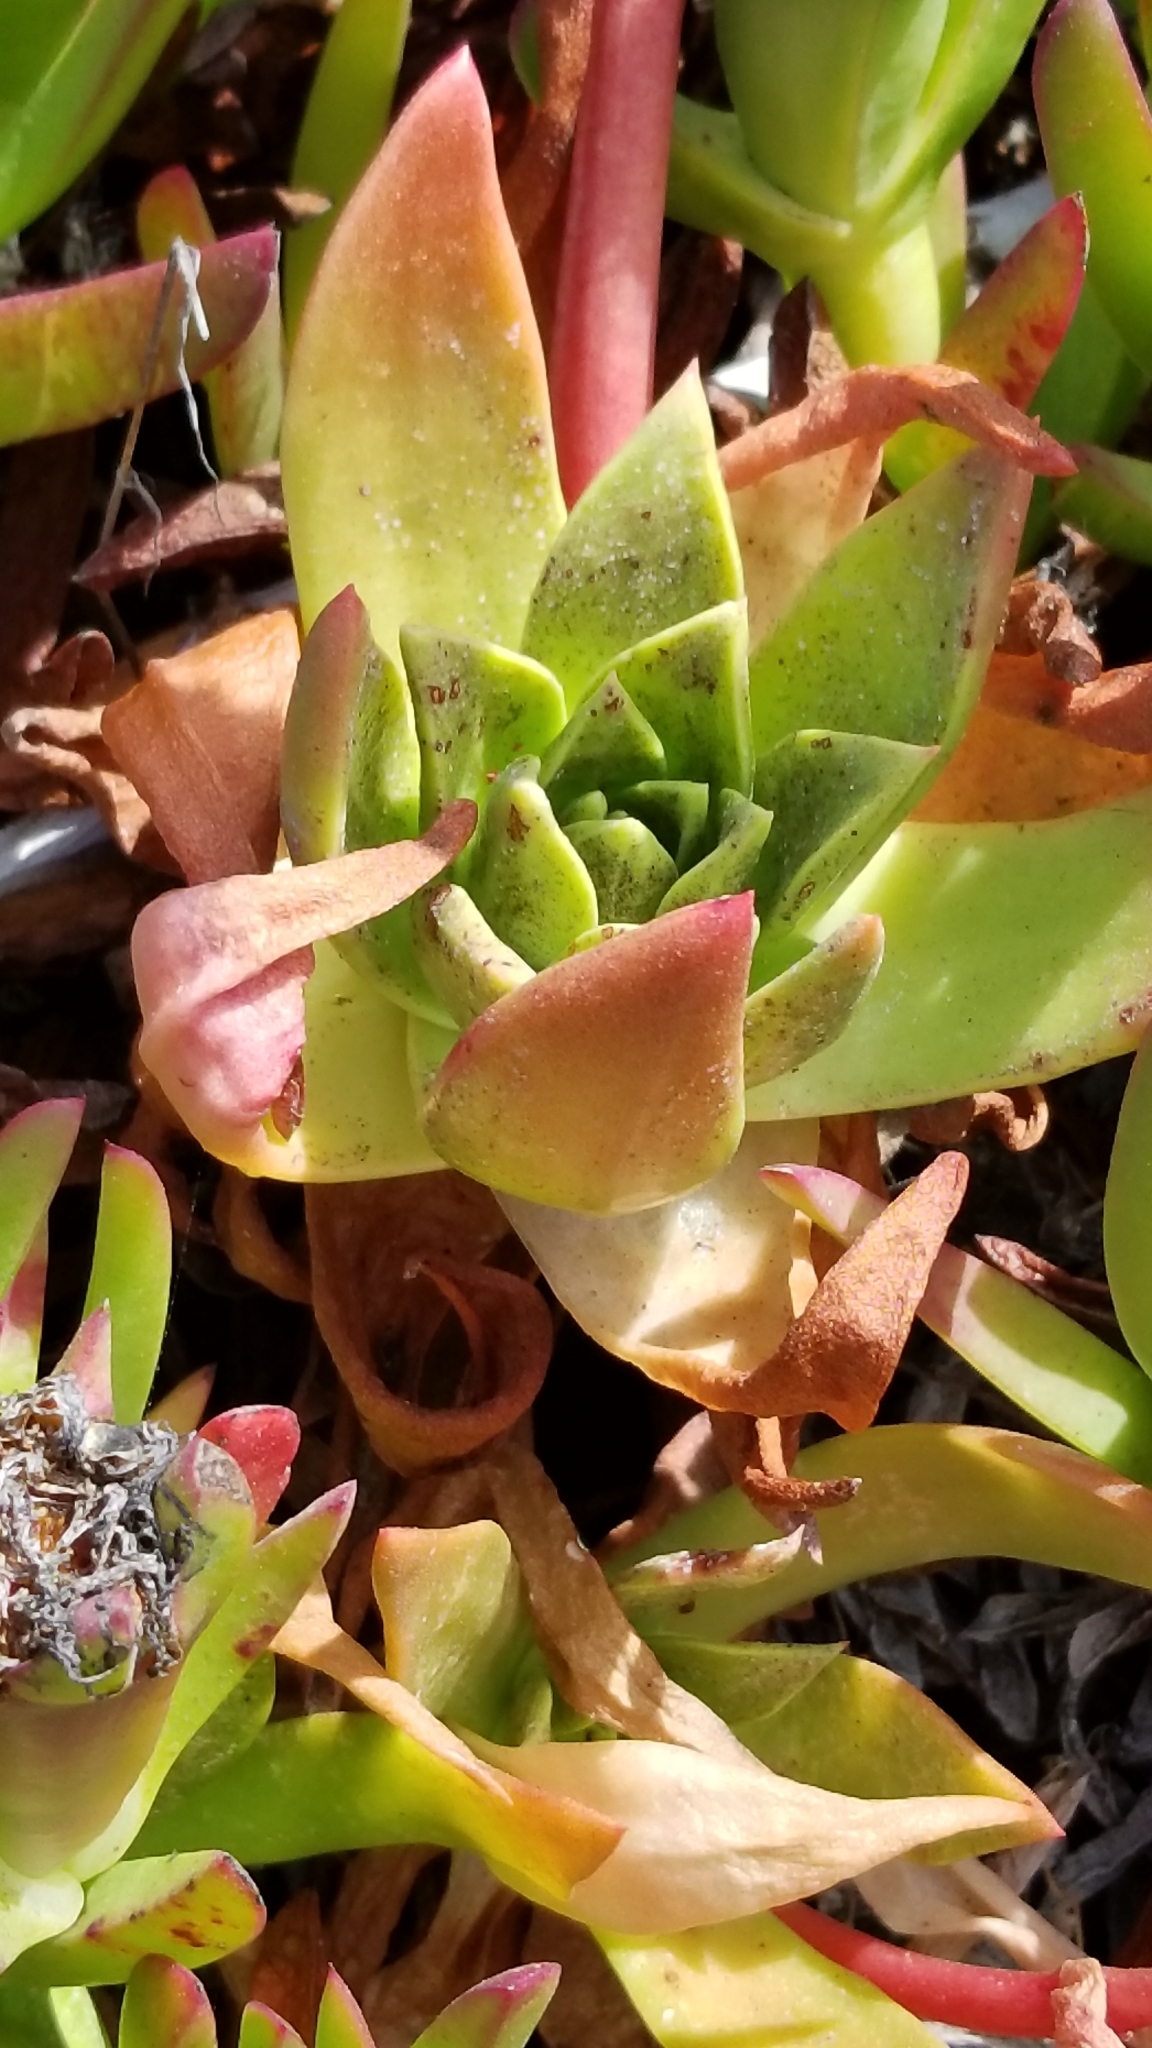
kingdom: Plantae
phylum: Tracheophyta
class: Magnoliopsida
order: Saxifragales
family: Crassulaceae
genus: Dudleya
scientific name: Dudleya caespitosa
